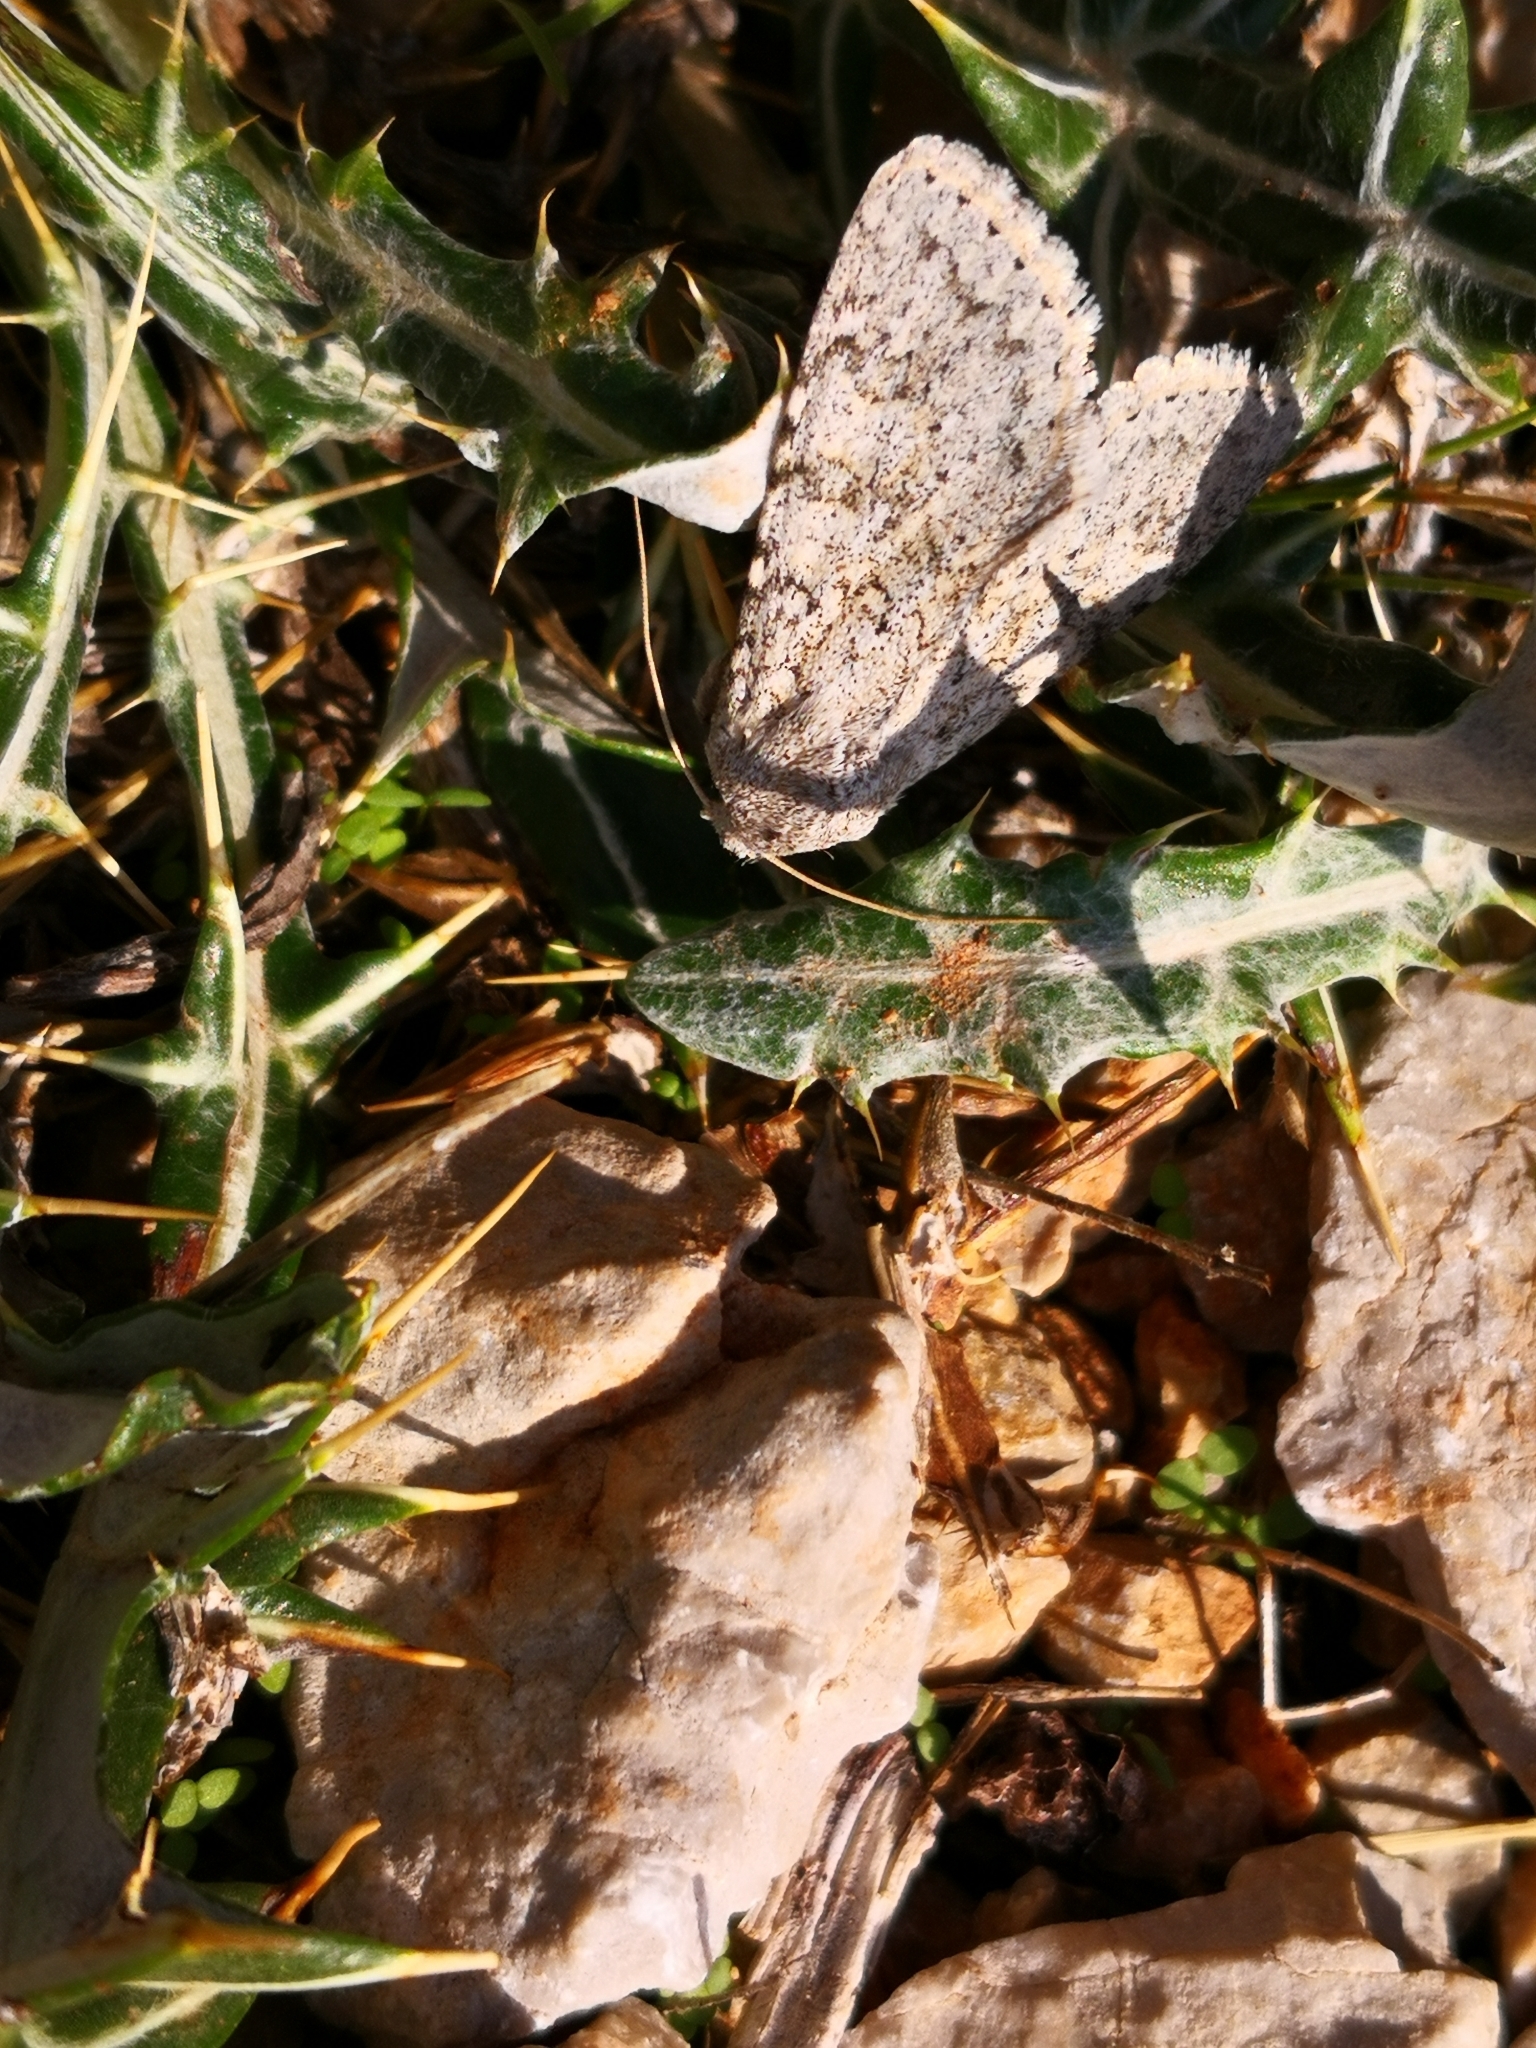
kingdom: Animalia
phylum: Arthropoda
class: Insecta
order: Lepidoptera
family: Noctuidae
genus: Aporophyla
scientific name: Aporophyla canescens
